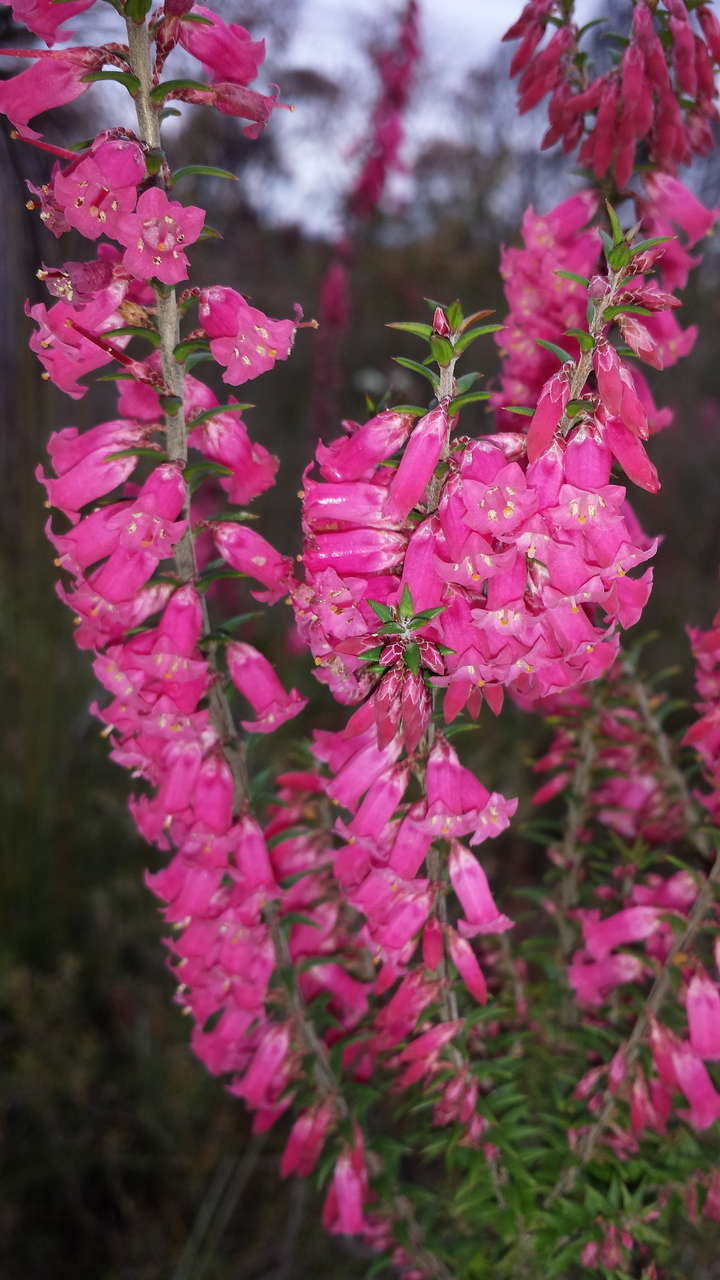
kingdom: Plantae
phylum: Tracheophyta
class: Magnoliopsida
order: Ericales
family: Ericaceae
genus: Epacris
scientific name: Epacris impressa
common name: Common-heath
